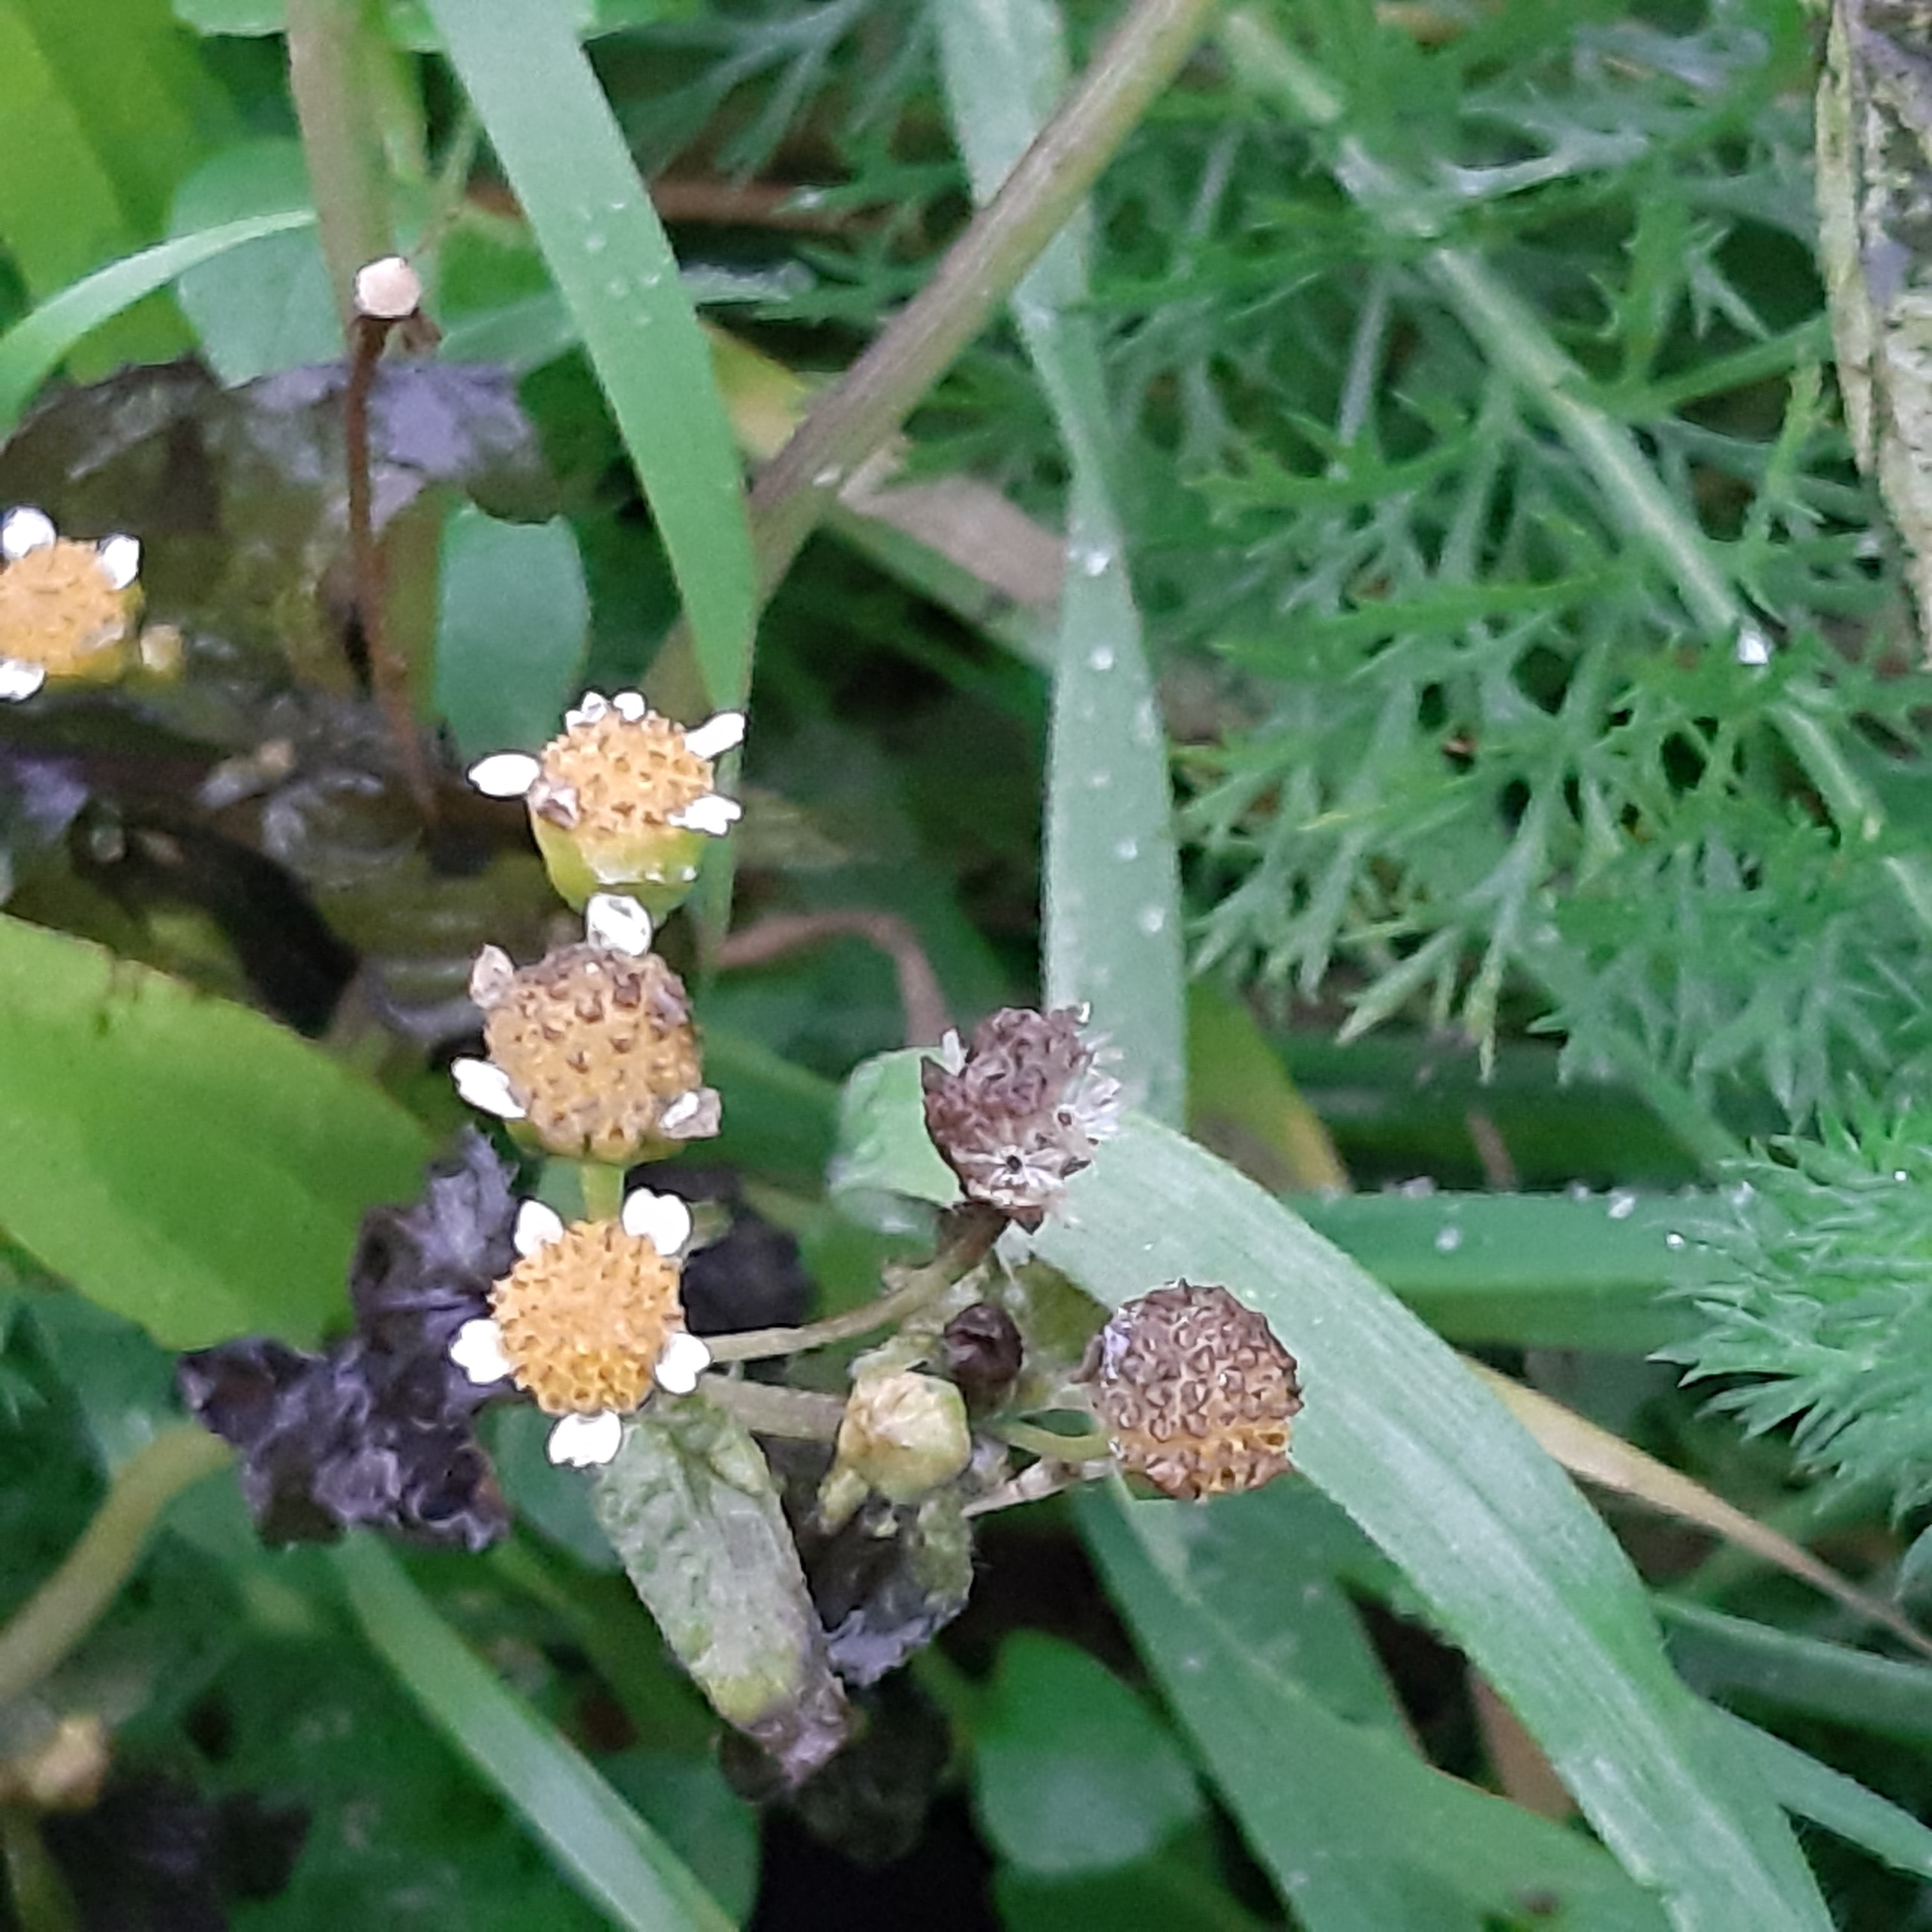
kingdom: Plantae
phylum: Tracheophyta
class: Magnoliopsida
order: Asterales
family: Asteraceae
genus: Galinsoga
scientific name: Galinsoga quadriradiata
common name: Shaggy soldier
